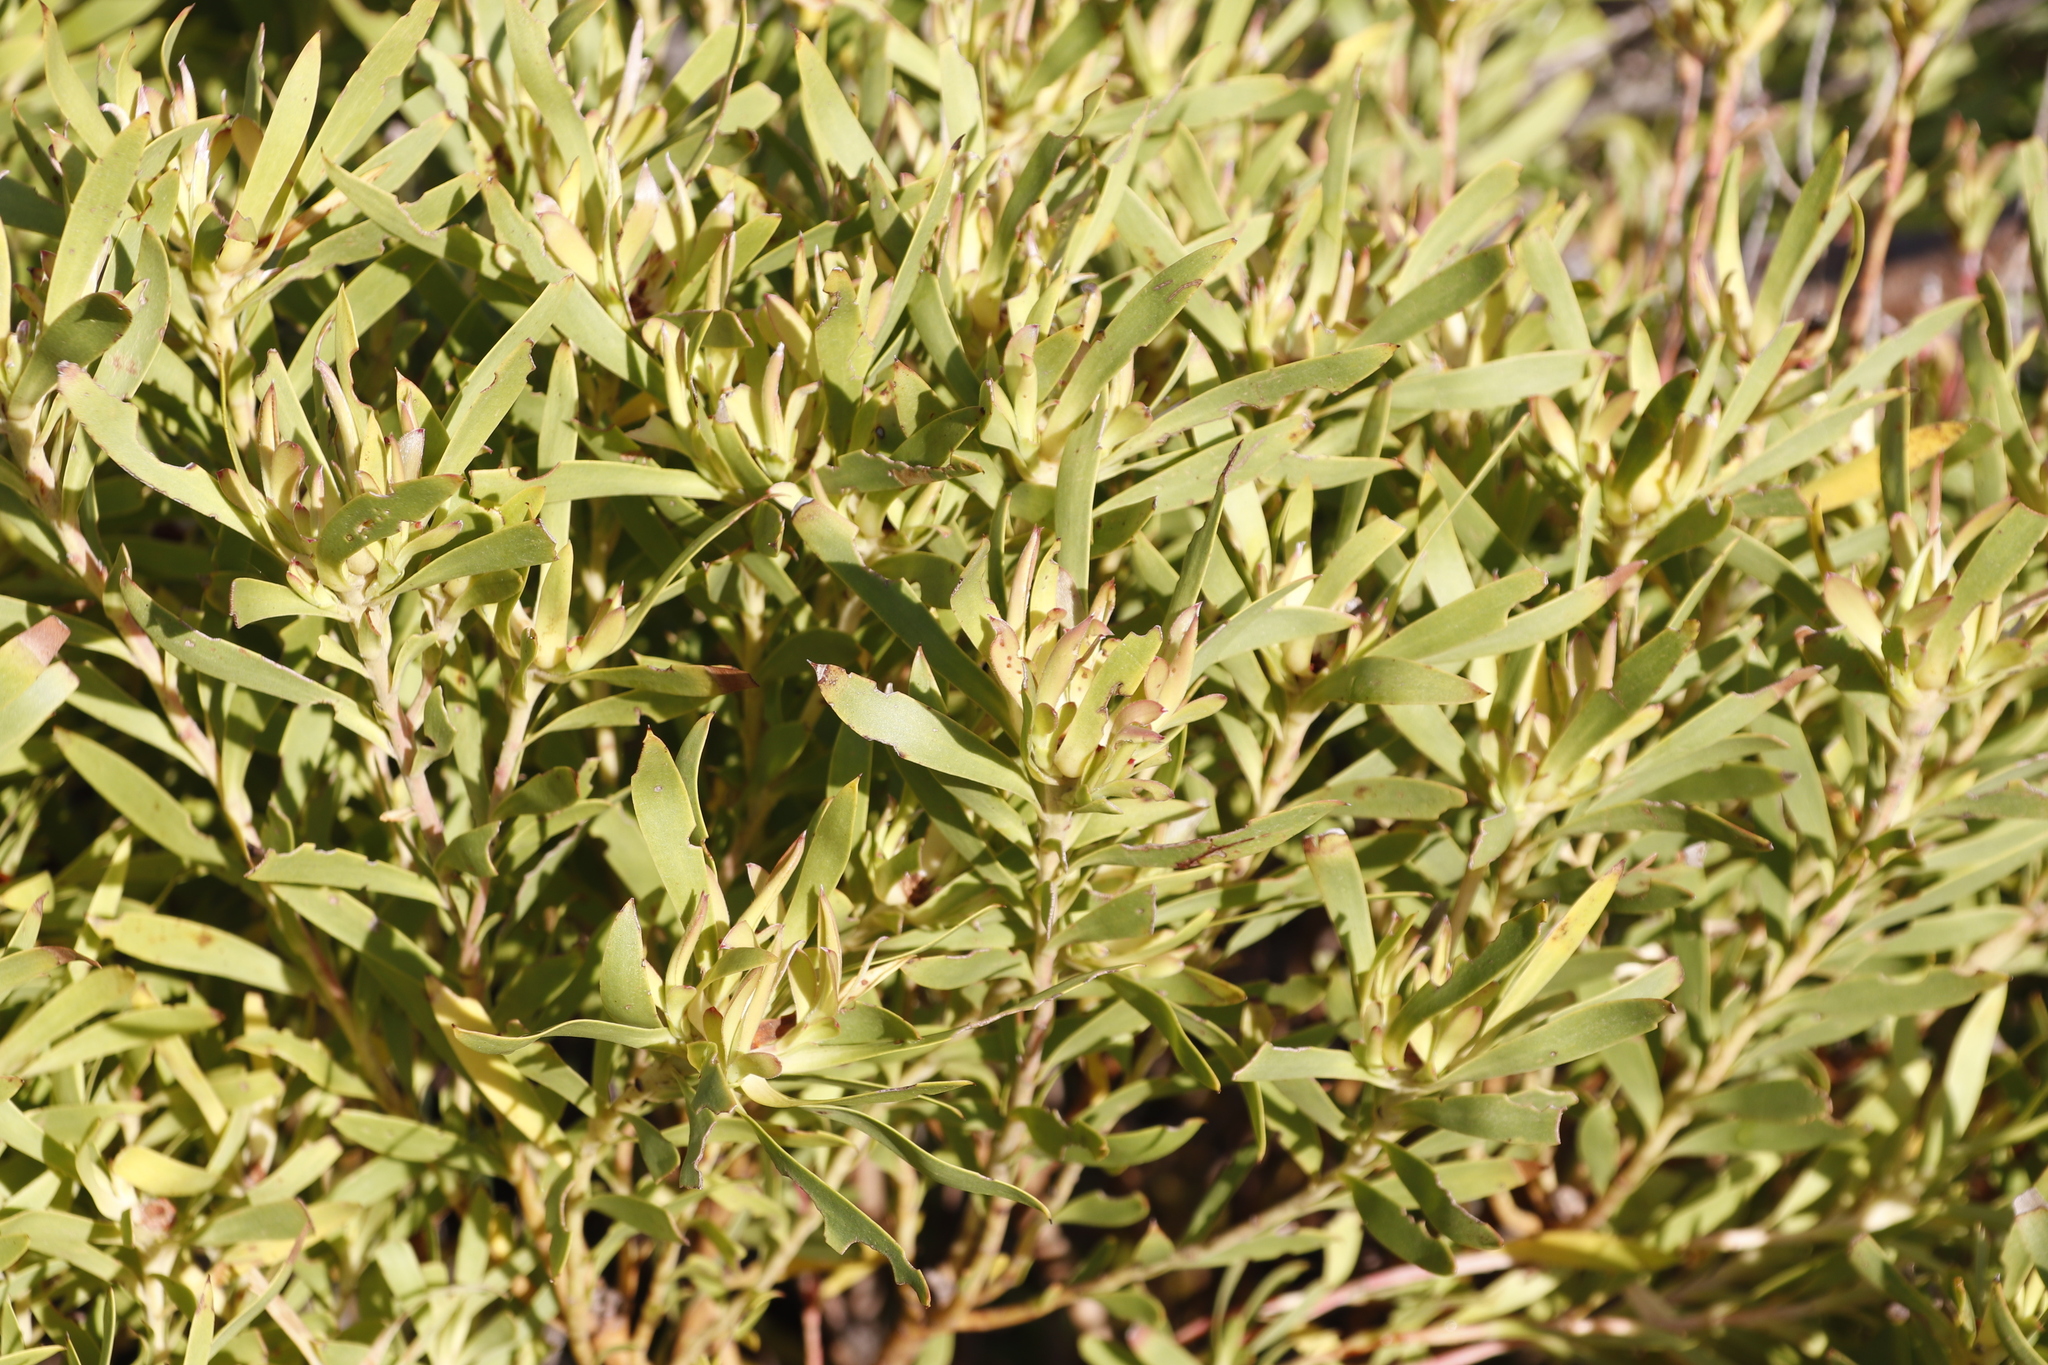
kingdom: Plantae
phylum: Tracheophyta
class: Magnoliopsida
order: Proteales
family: Proteaceae
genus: Leucadendron
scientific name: Leucadendron coniferum
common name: Dune conebush
